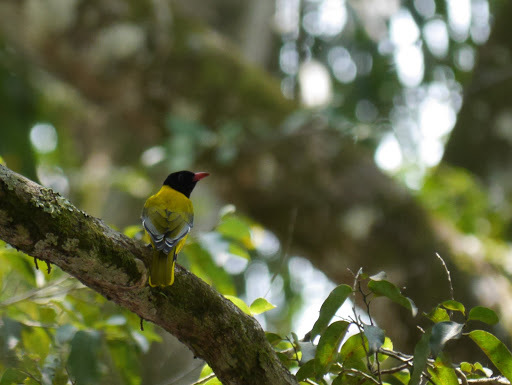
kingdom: Animalia
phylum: Chordata
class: Aves
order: Passeriformes
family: Oriolidae
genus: Oriolus
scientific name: Oriolus brachyrynchus
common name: Western oriole
